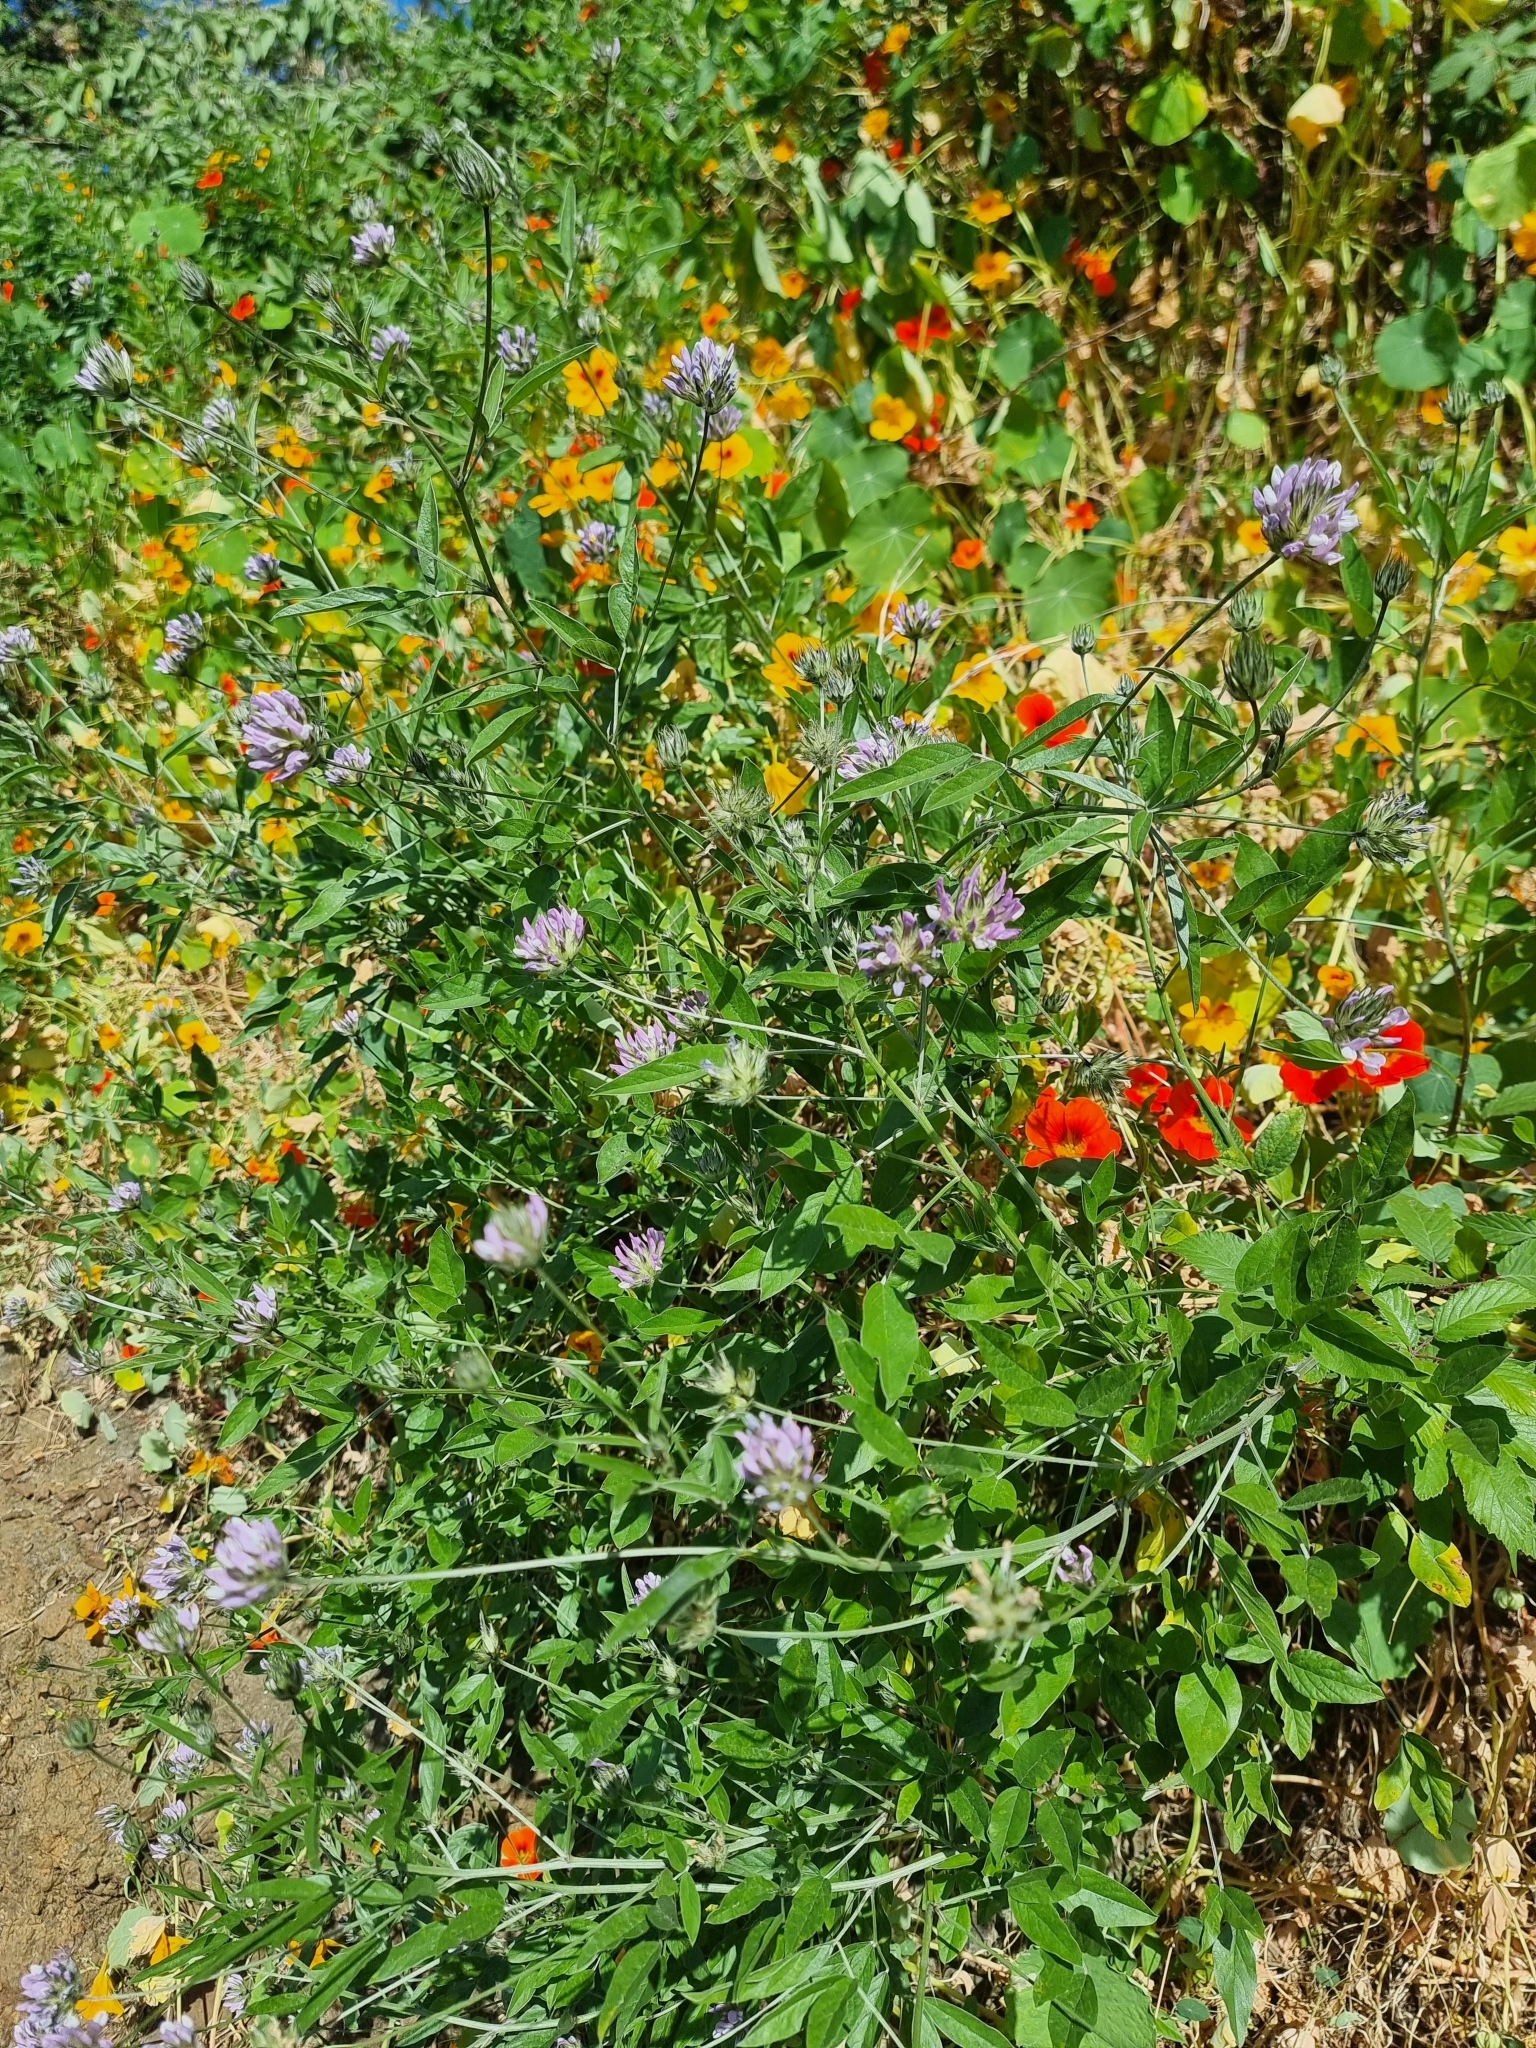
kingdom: Plantae
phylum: Tracheophyta
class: Magnoliopsida
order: Fabales
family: Fabaceae
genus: Bituminaria
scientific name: Bituminaria bituminosa
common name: Arabian pea
